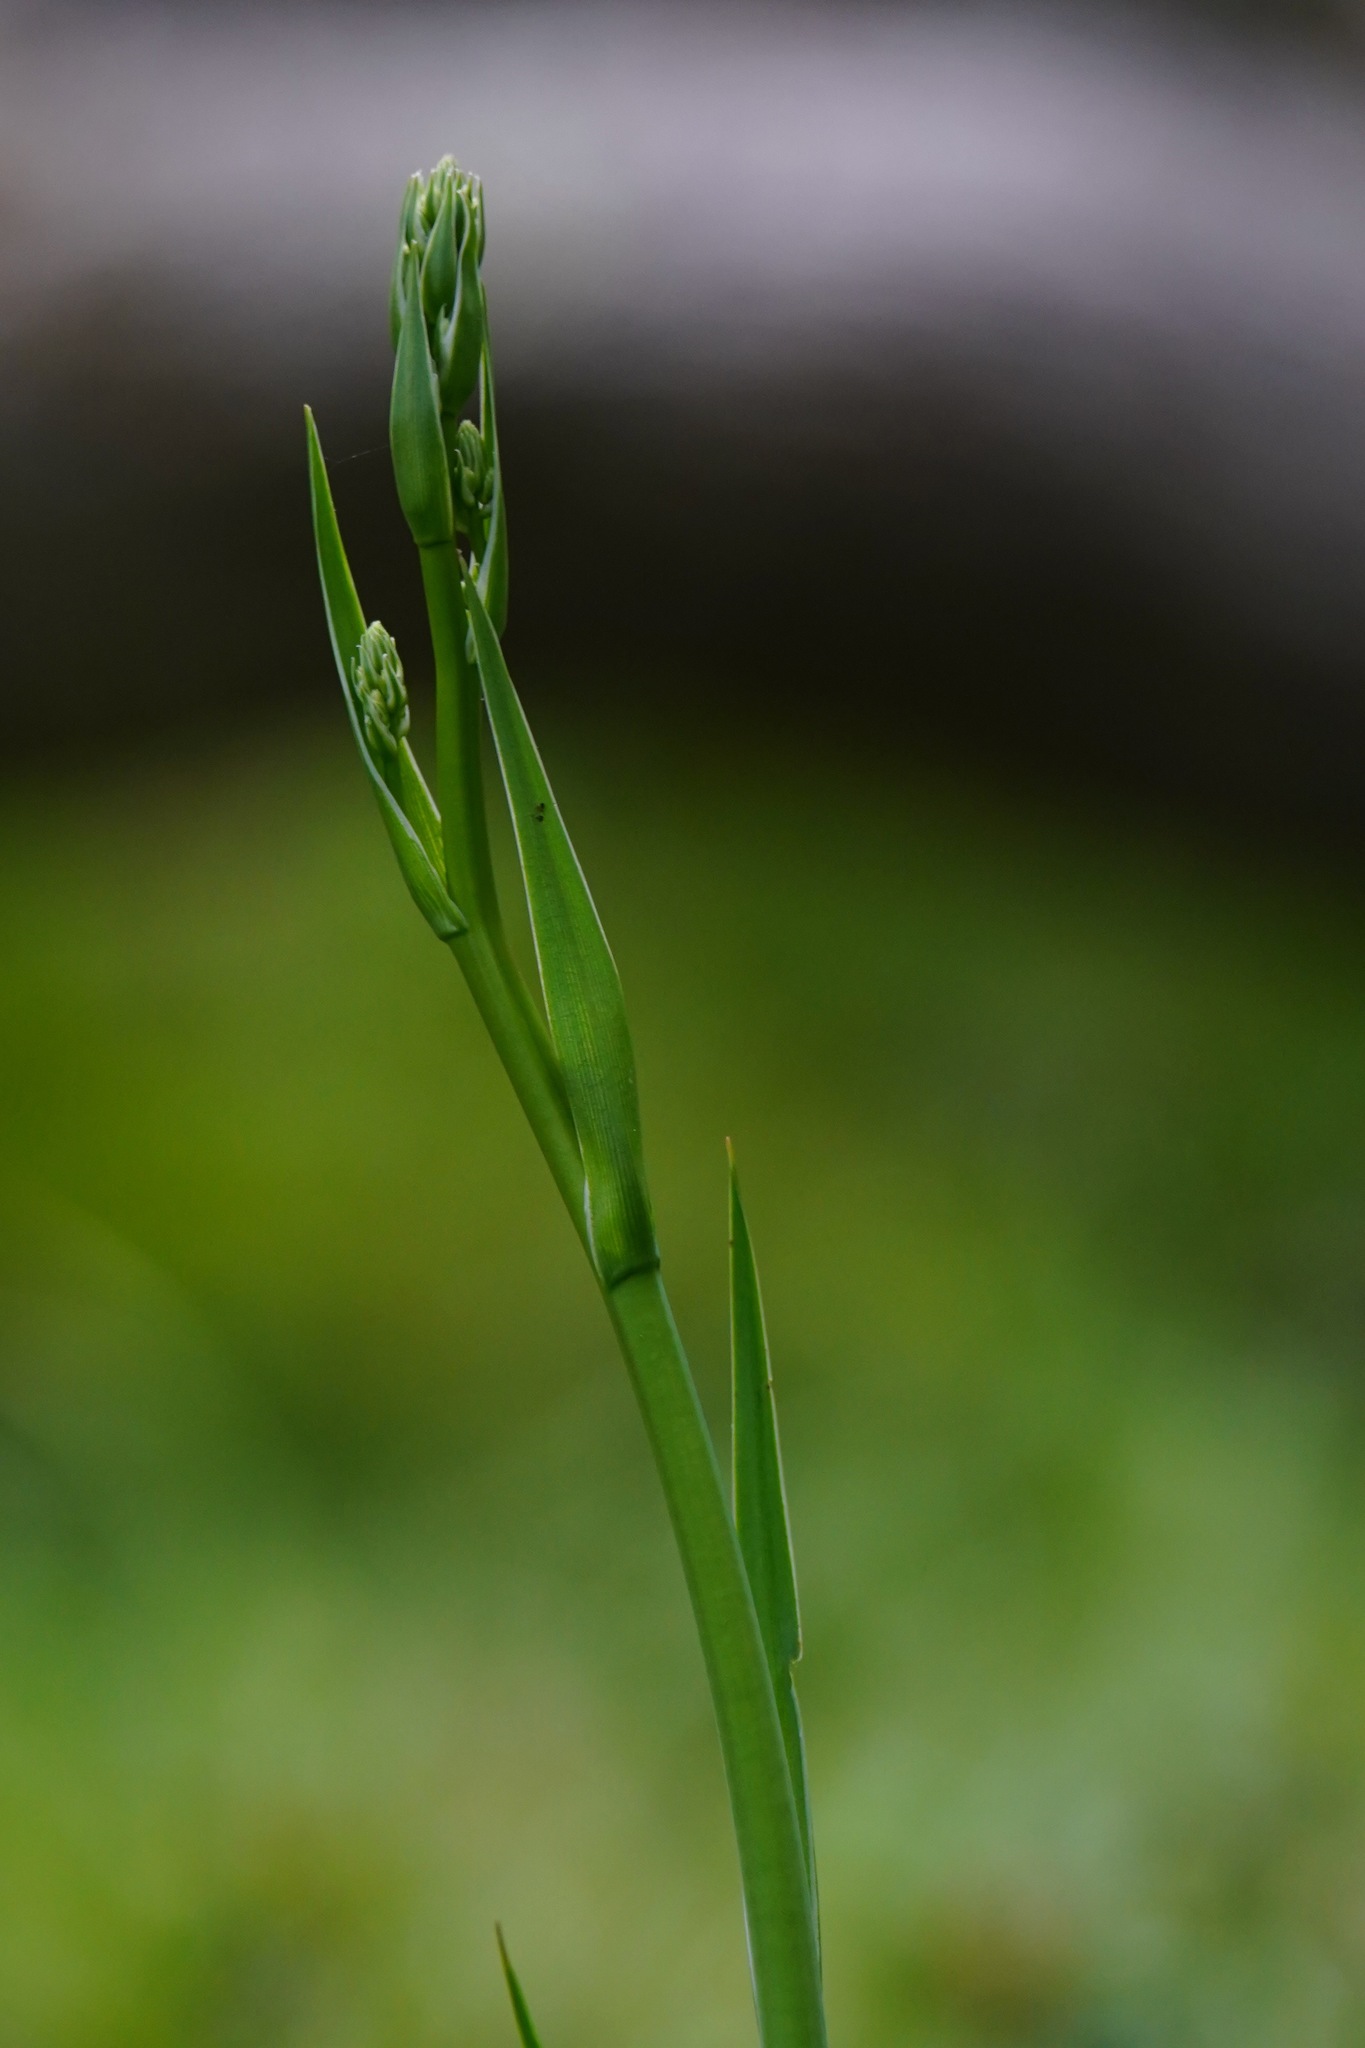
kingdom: Plantae
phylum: Tracheophyta
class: Liliopsida
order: Asparagales
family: Asparagaceae
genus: Chlorogalum
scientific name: Chlorogalum pomeridianum
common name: Amole
